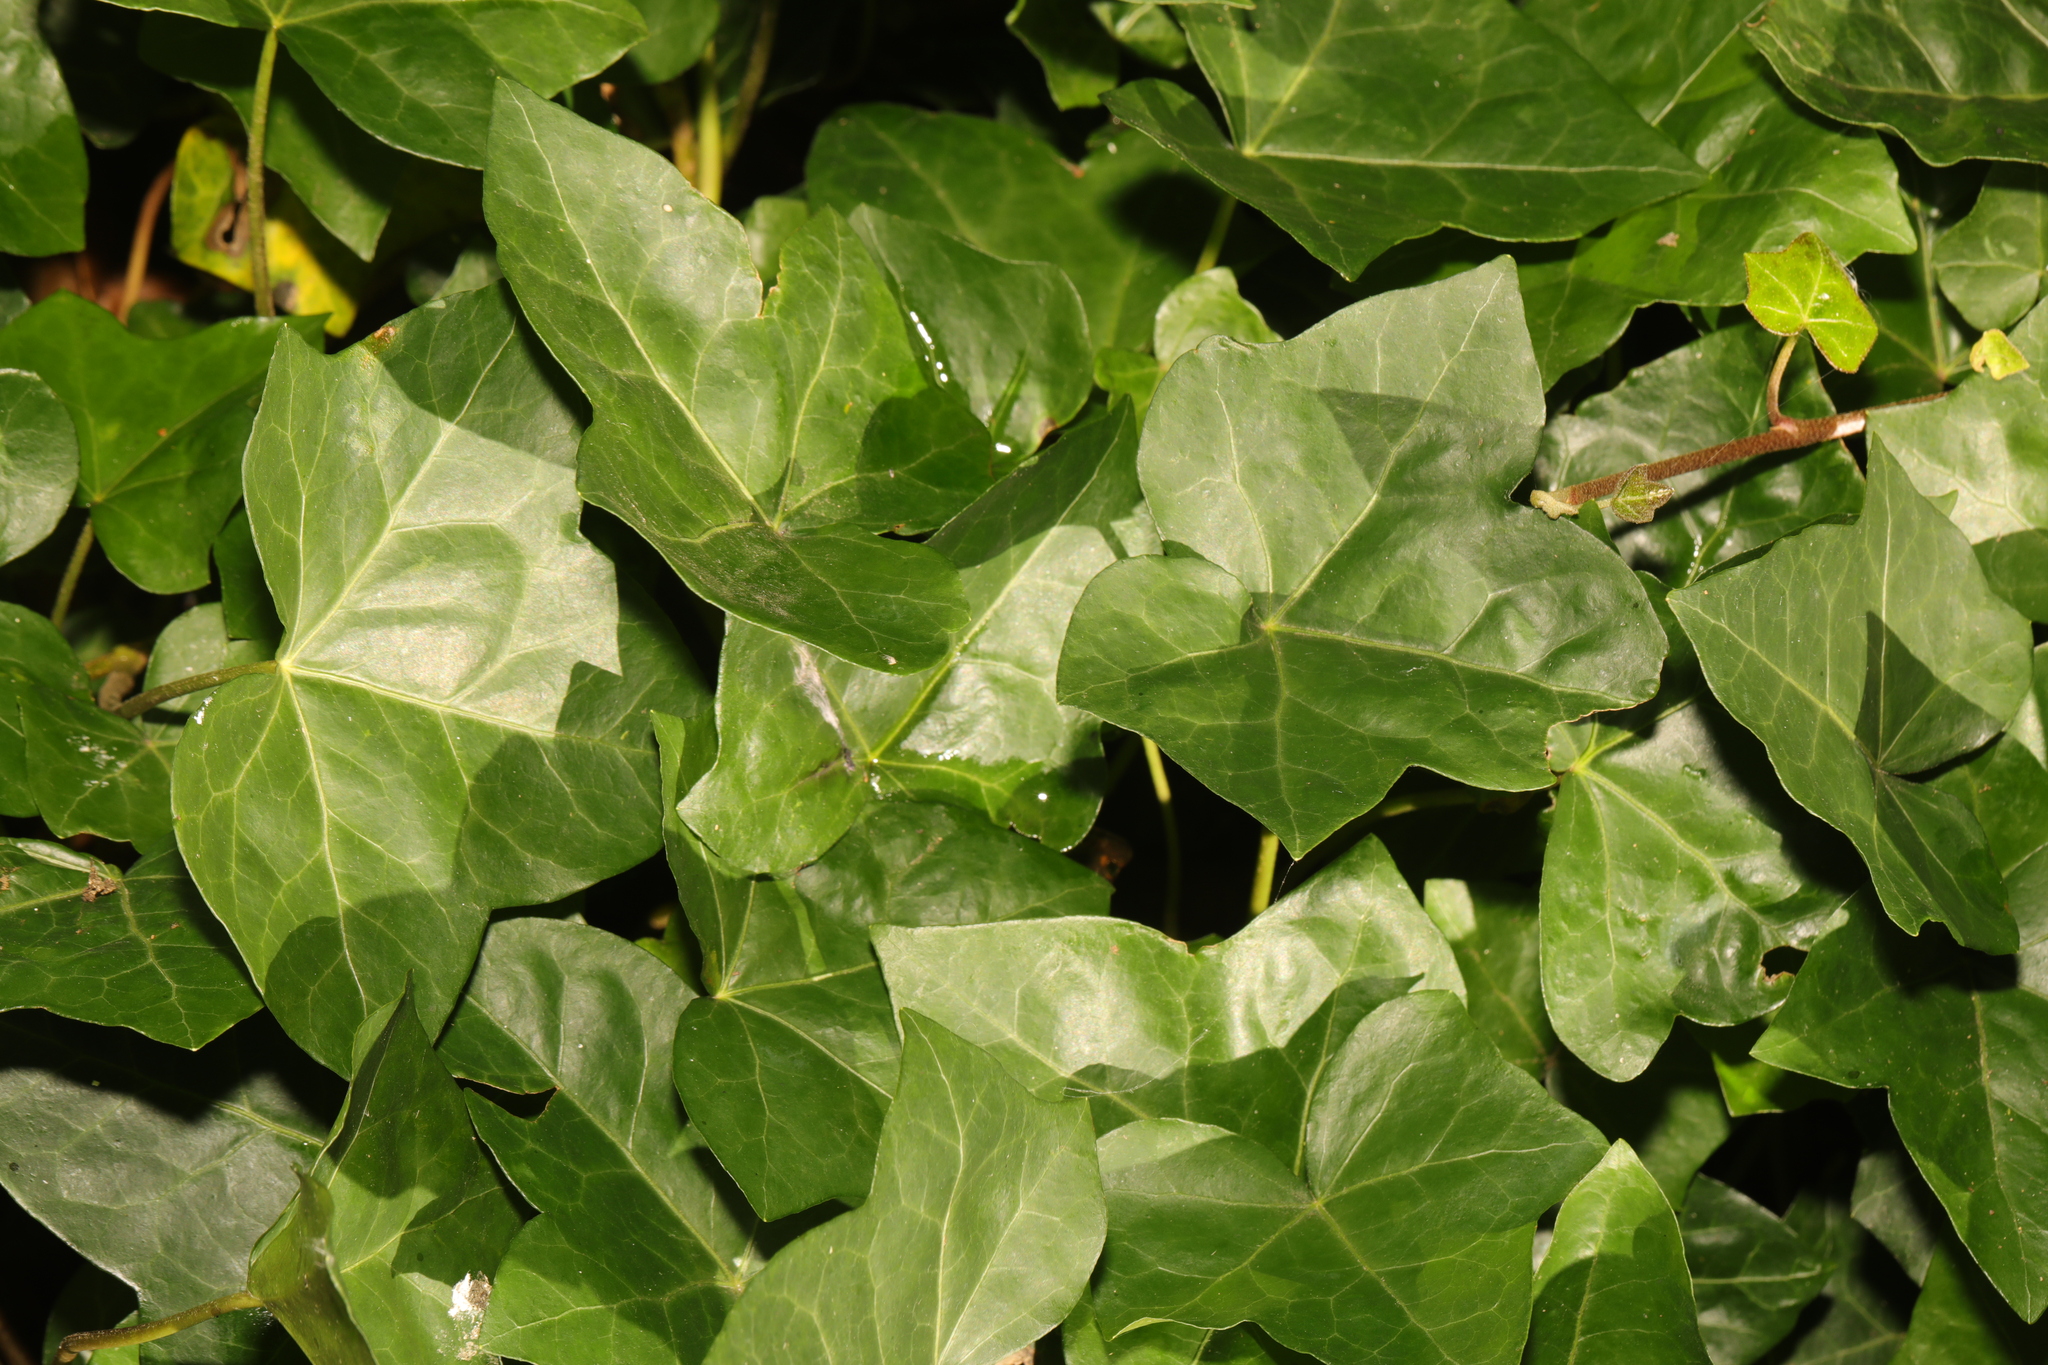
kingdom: Plantae
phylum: Tracheophyta
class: Magnoliopsida
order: Apiales
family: Araliaceae
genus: Hedera
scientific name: Hedera helix
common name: Ivy
